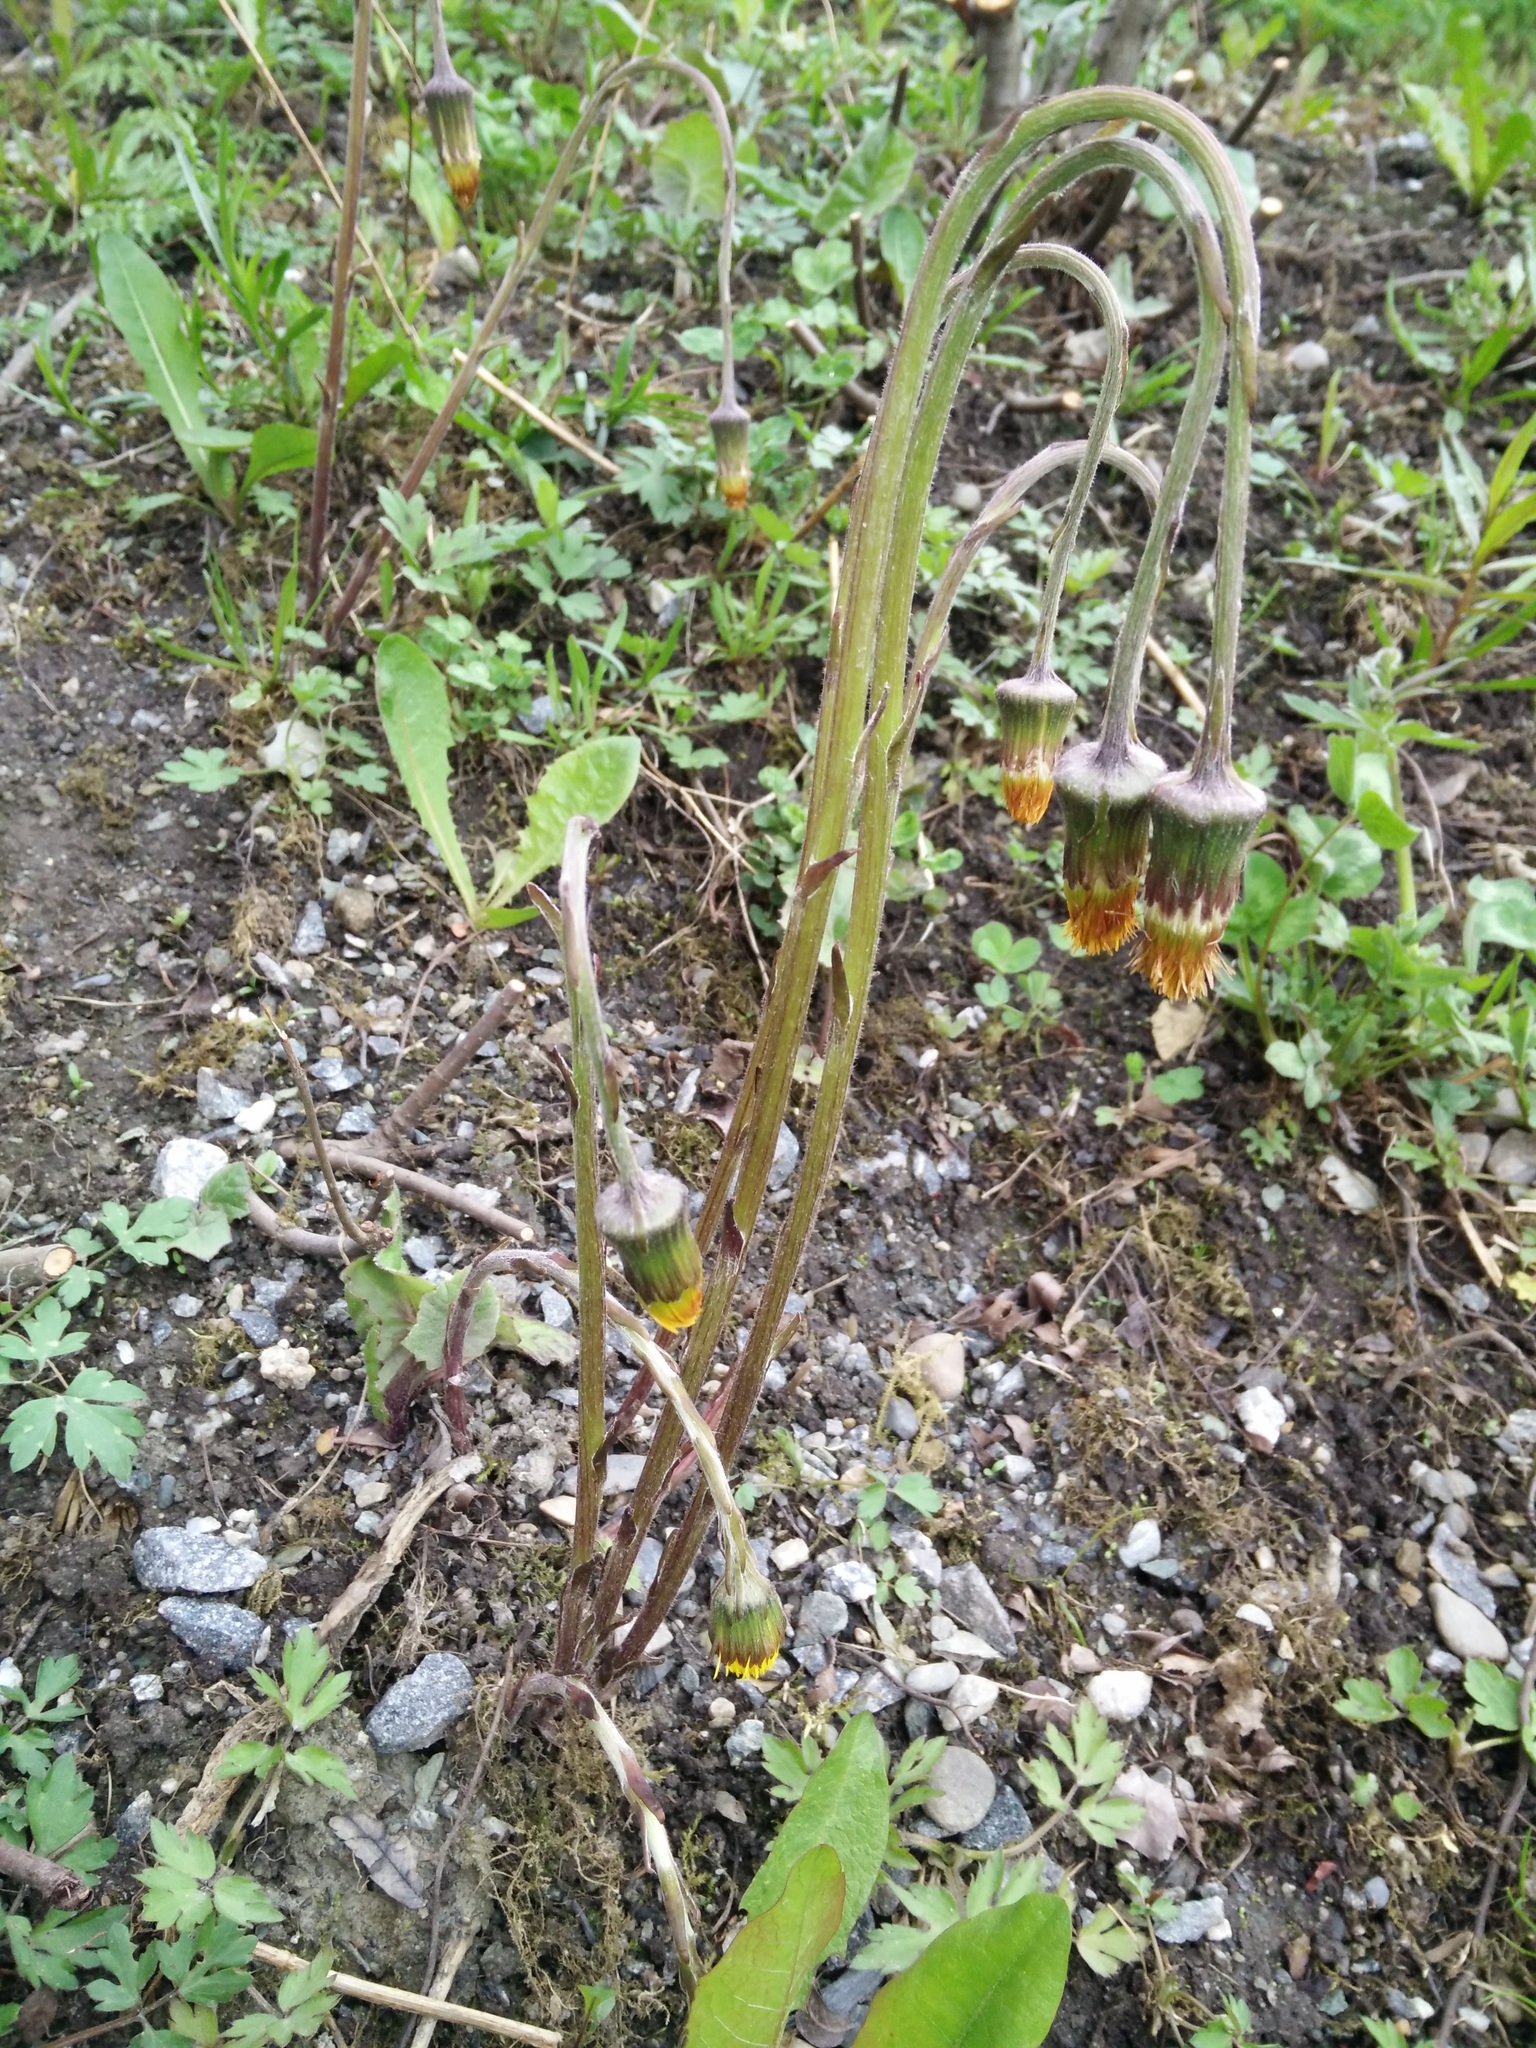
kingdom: Plantae
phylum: Tracheophyta
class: Magnoliopsida
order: Asterales
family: Asteraceae
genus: Tussilago
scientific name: Tussilago farfara
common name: Coltsfoot
